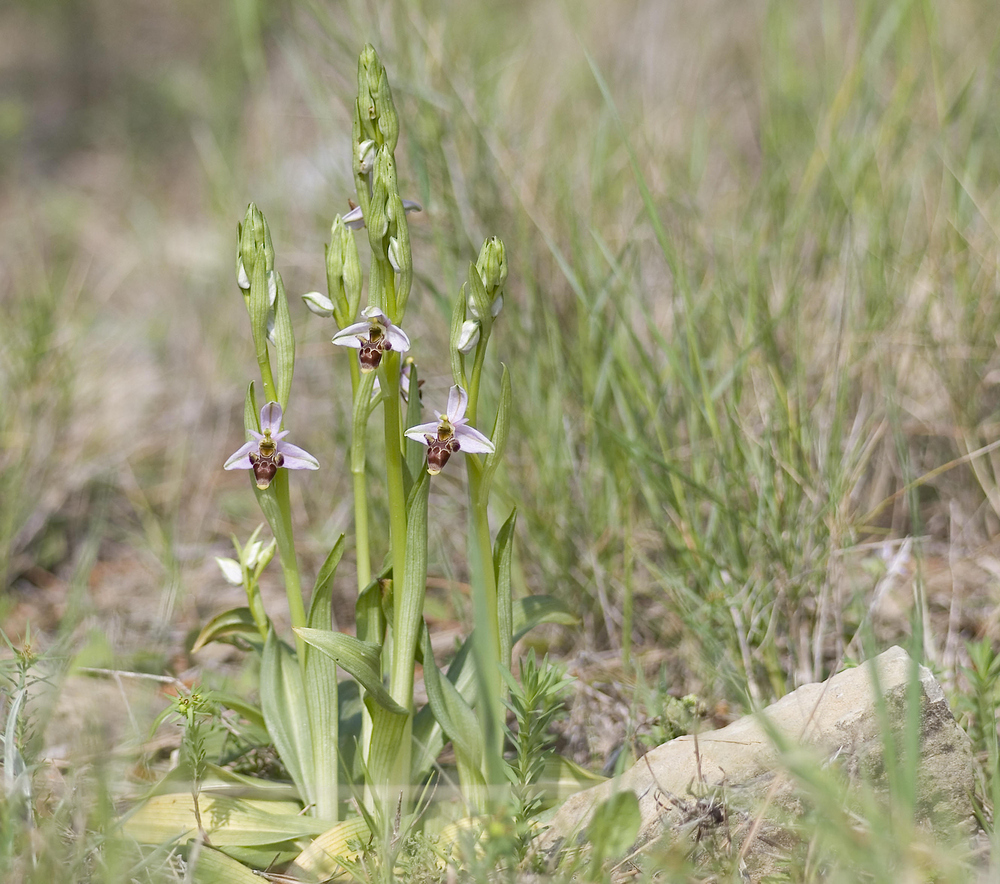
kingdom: Plantae
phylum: Tracheophyta
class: Liliopsida
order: Asparagales
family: Orchidaceae
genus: Ophrys
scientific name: Ophrys scolopax
